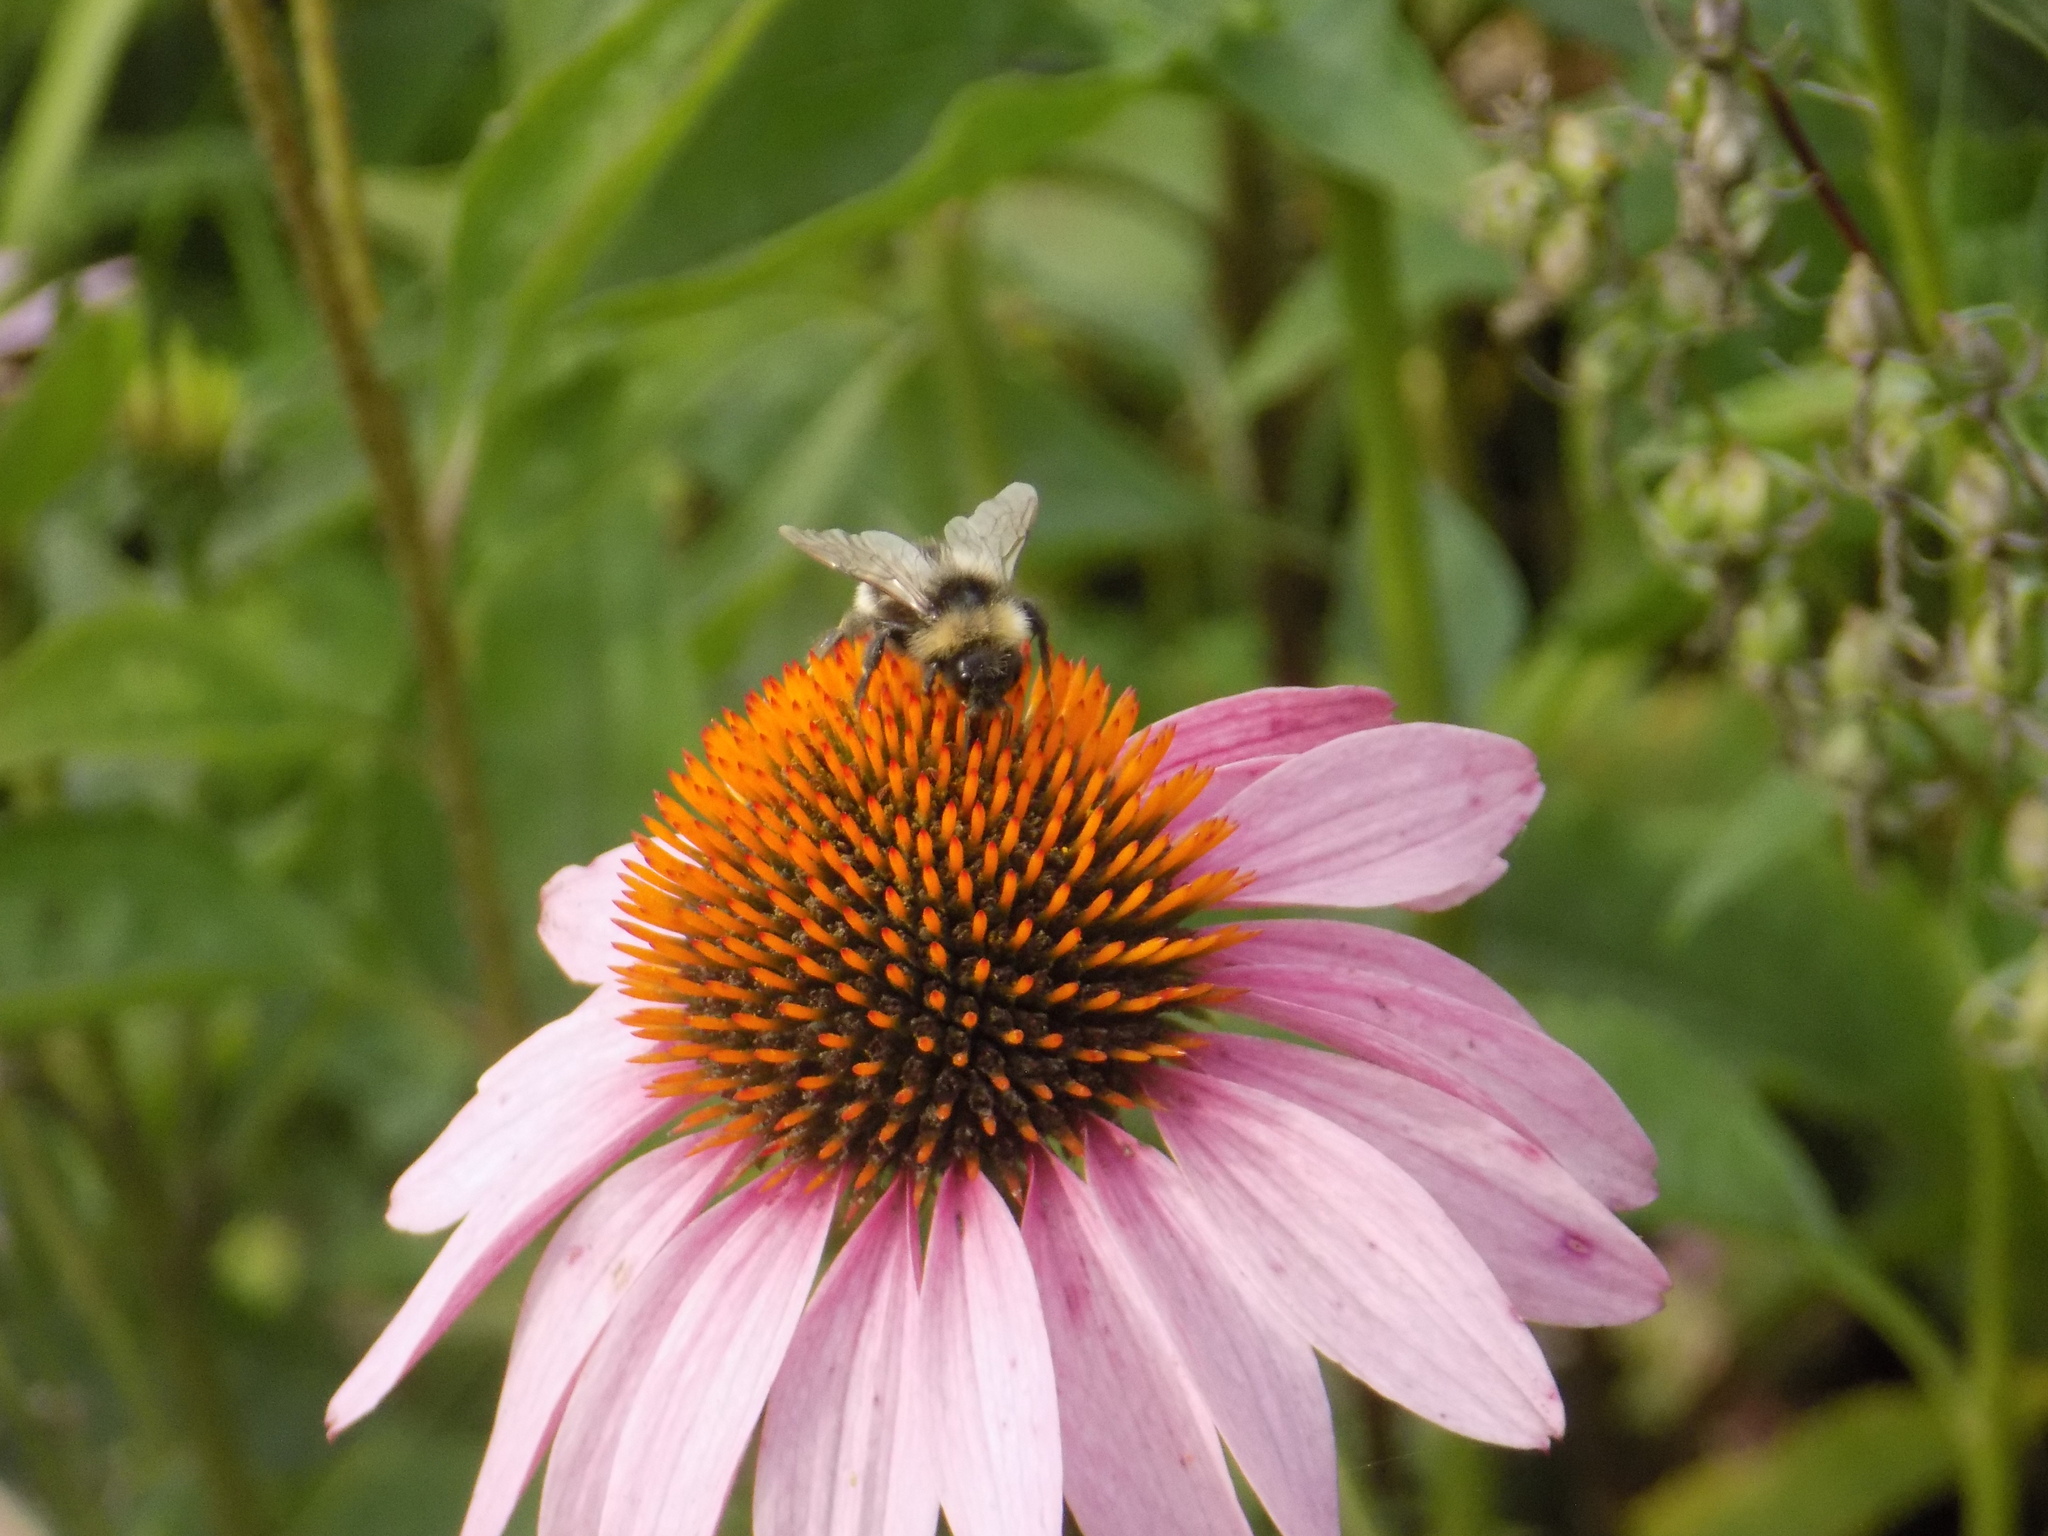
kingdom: Animalia
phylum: Arthropoda
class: Insecta
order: Hymenoptera
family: Apidae
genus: Bombus
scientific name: Bombus bohemicus
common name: Gypsy cuckoo bee
